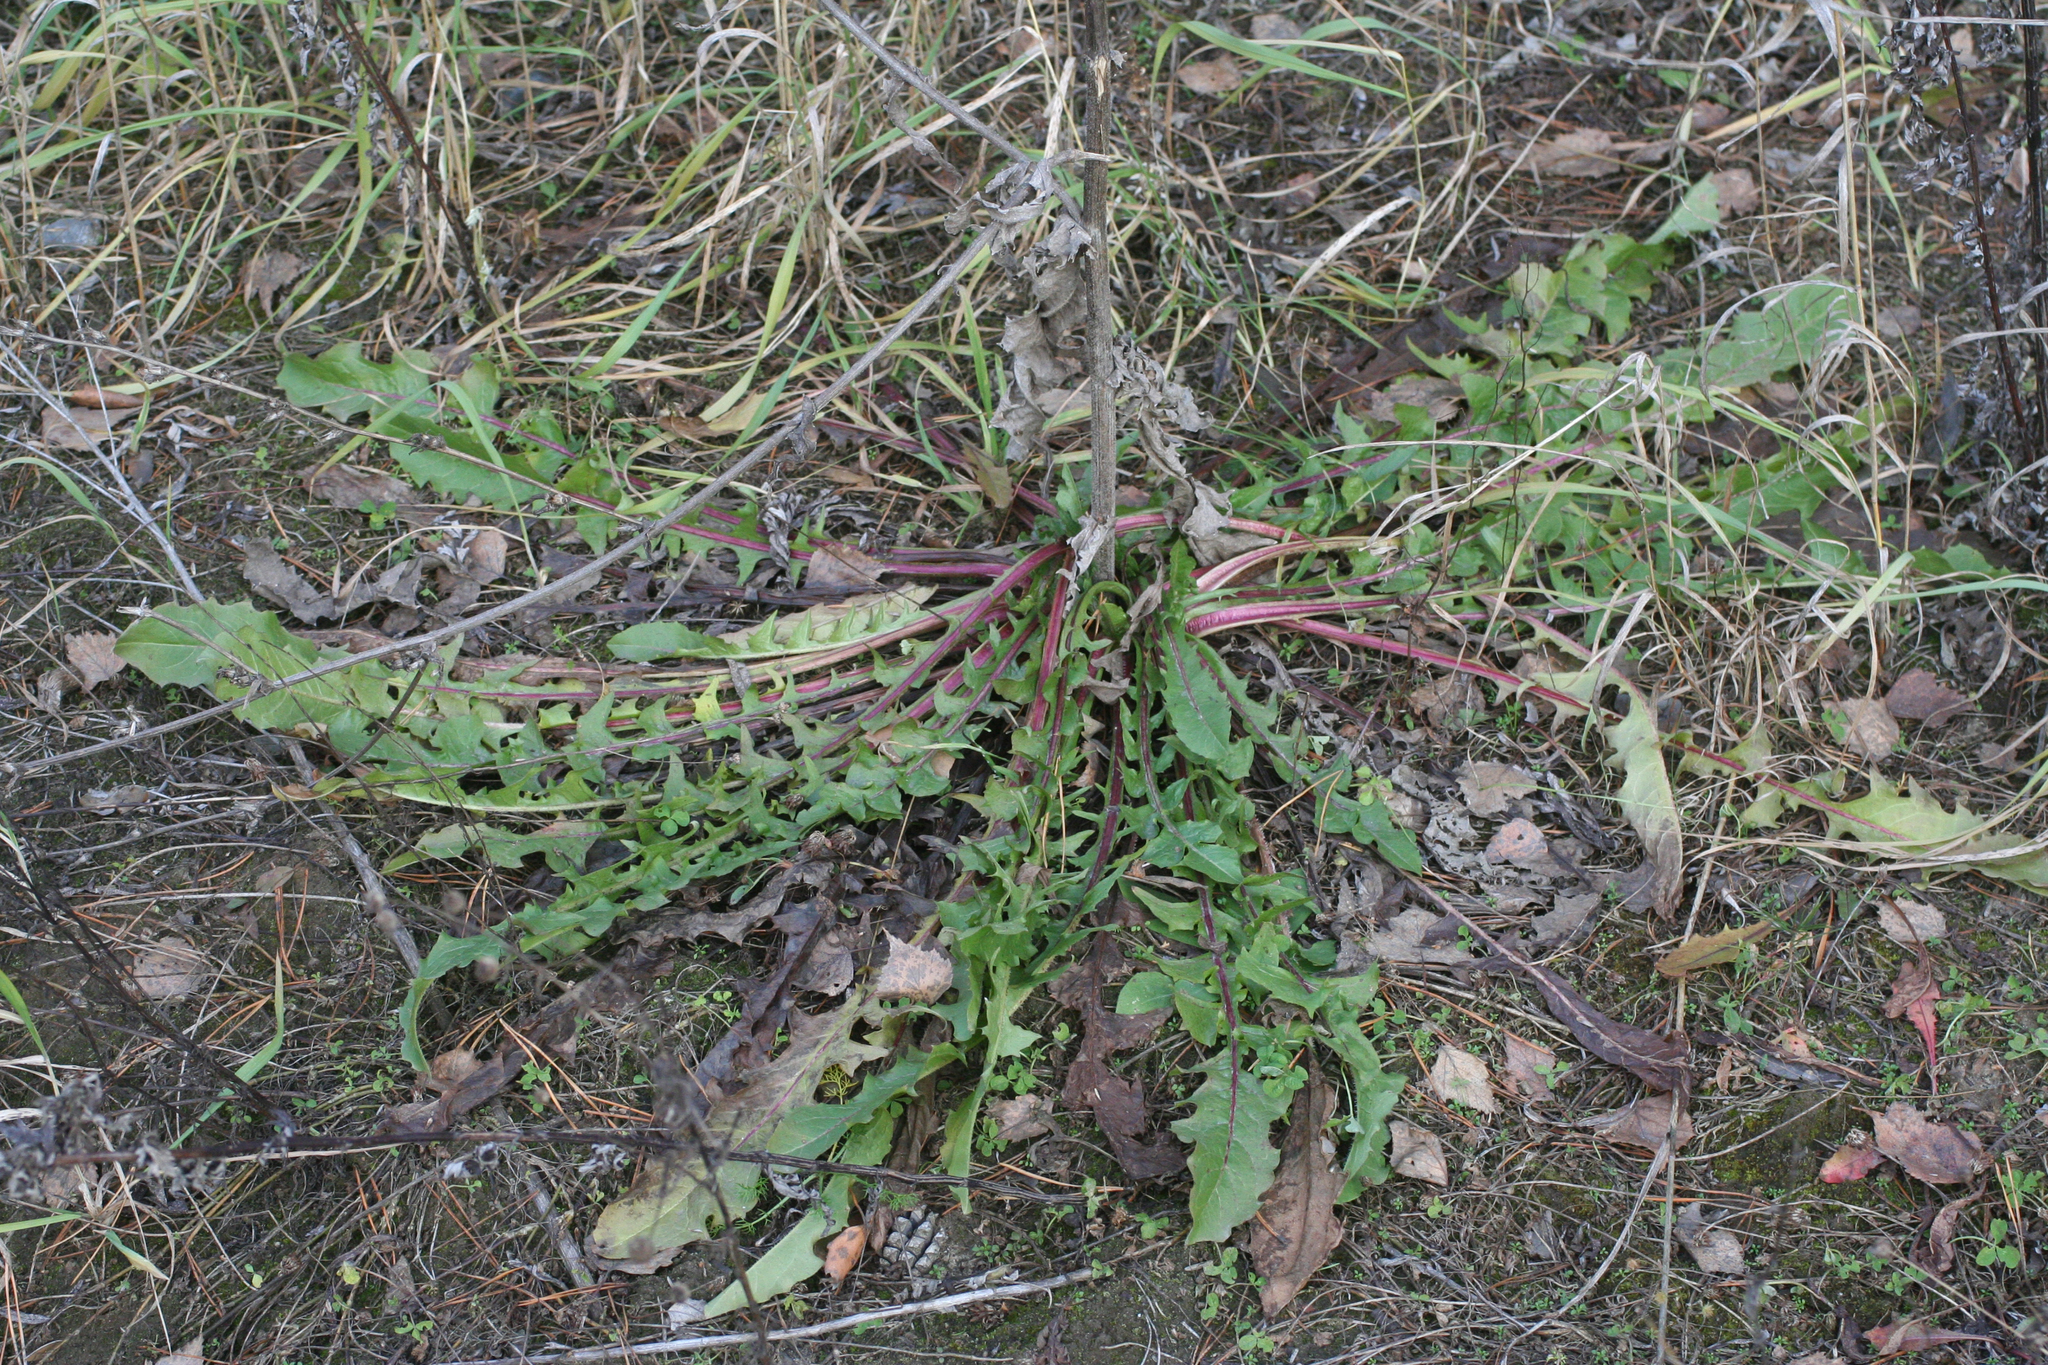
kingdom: Plantae
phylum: Tracheophyta
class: Magnoliopsida
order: Asterales
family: Asteraceae
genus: Taraxacum
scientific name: Taraxacum officinale
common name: Common dandelion
